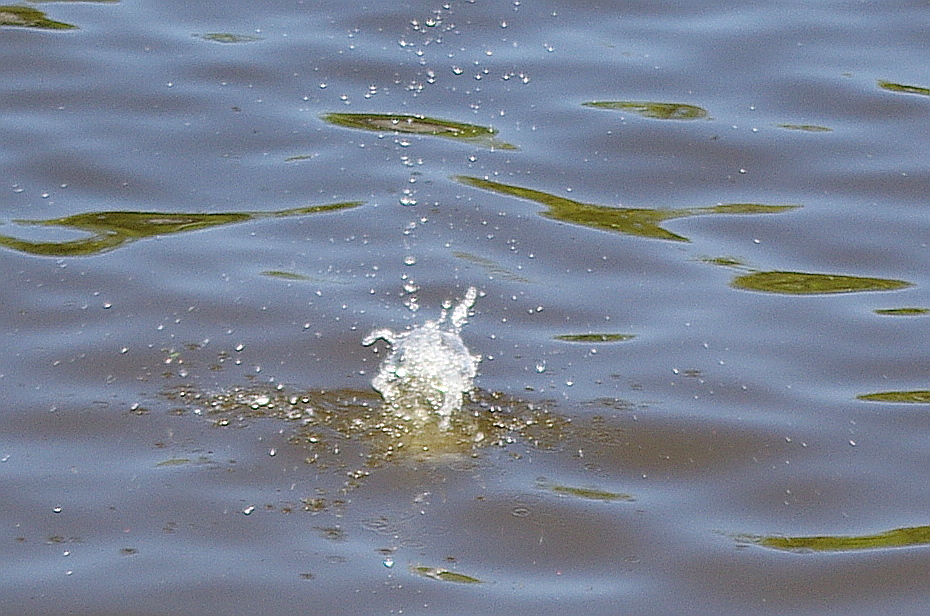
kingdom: Animalia
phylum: Chordata
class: Aves
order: Charadriiformes
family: Laridae
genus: Sterna
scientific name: Sterna hirundo
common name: Common tern
